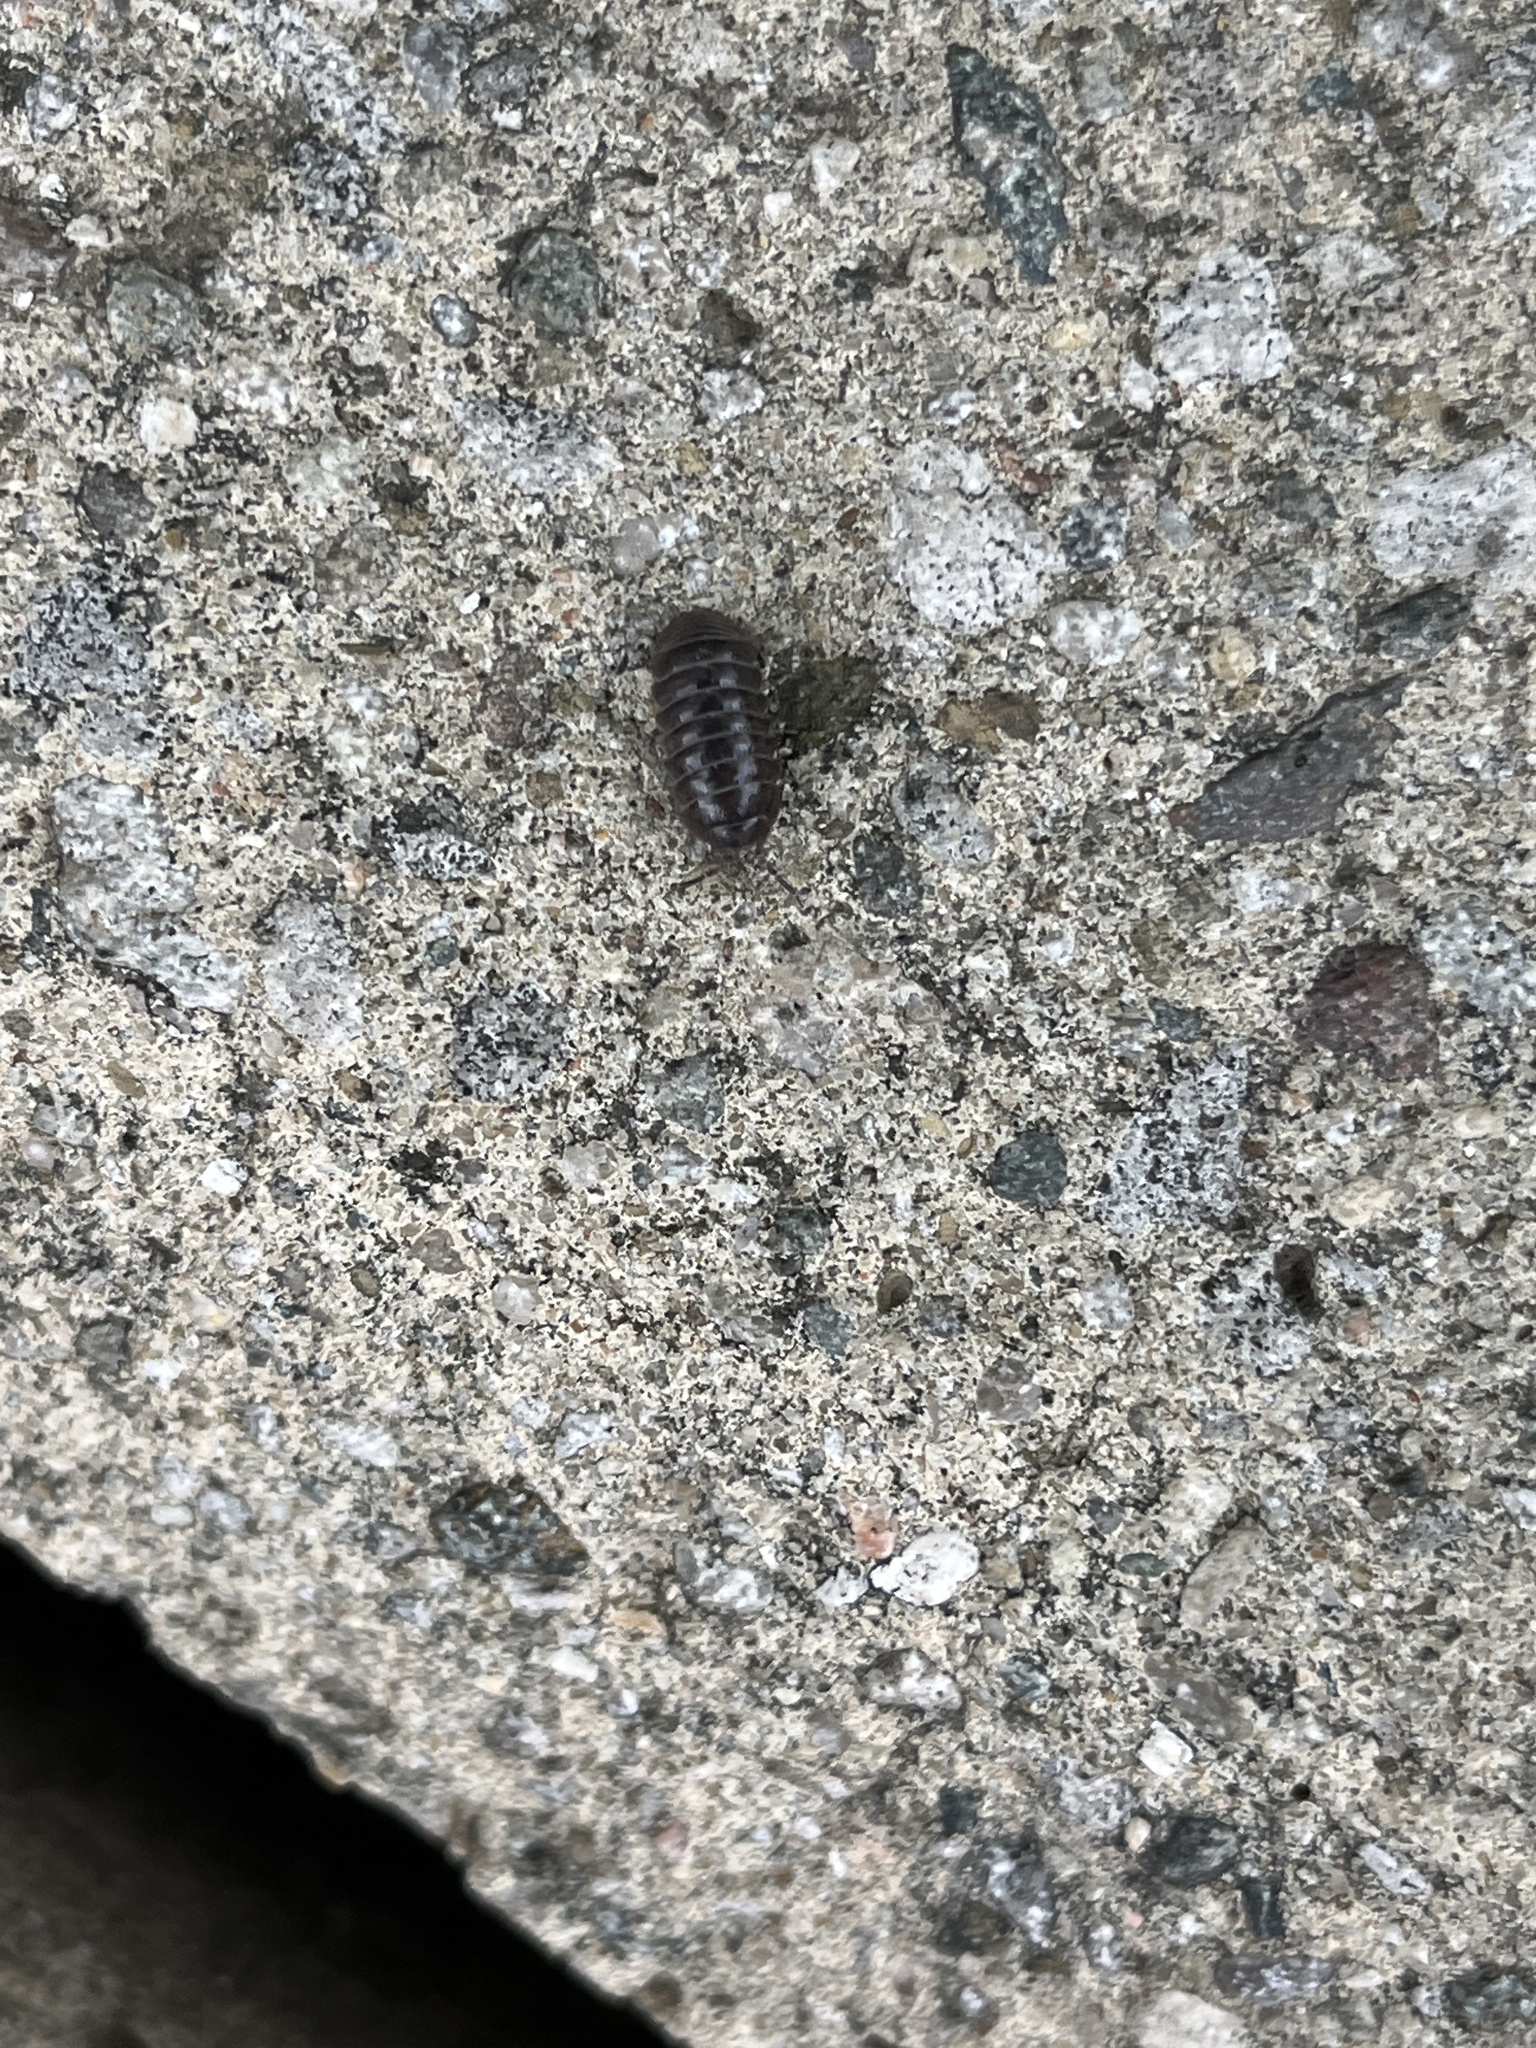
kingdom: Animalia
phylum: Arthropoda
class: Malacostraca
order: Isopoda
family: Armadillidiidae
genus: Armadillidium
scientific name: Armadillidium vulgare
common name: Common pill woodlouse
